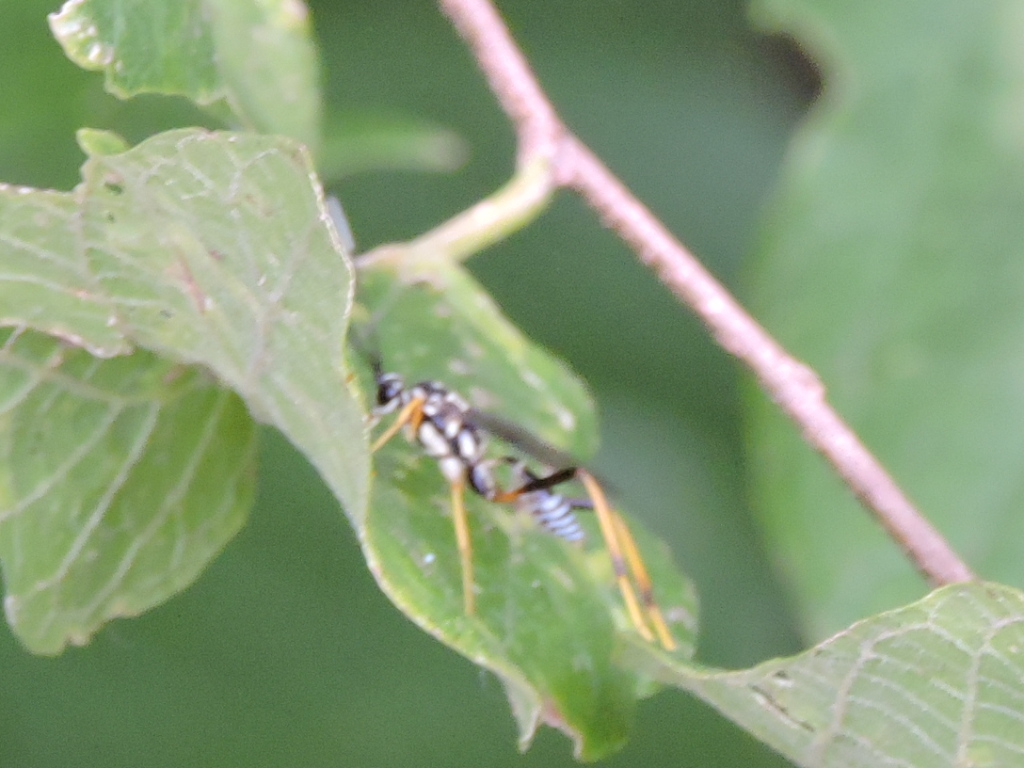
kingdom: Animalia
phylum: Arthropoda
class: Insecta
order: Hymenoptera
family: Ichneumonidae
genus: Cryptanura
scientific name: Cryptanura spinaria
